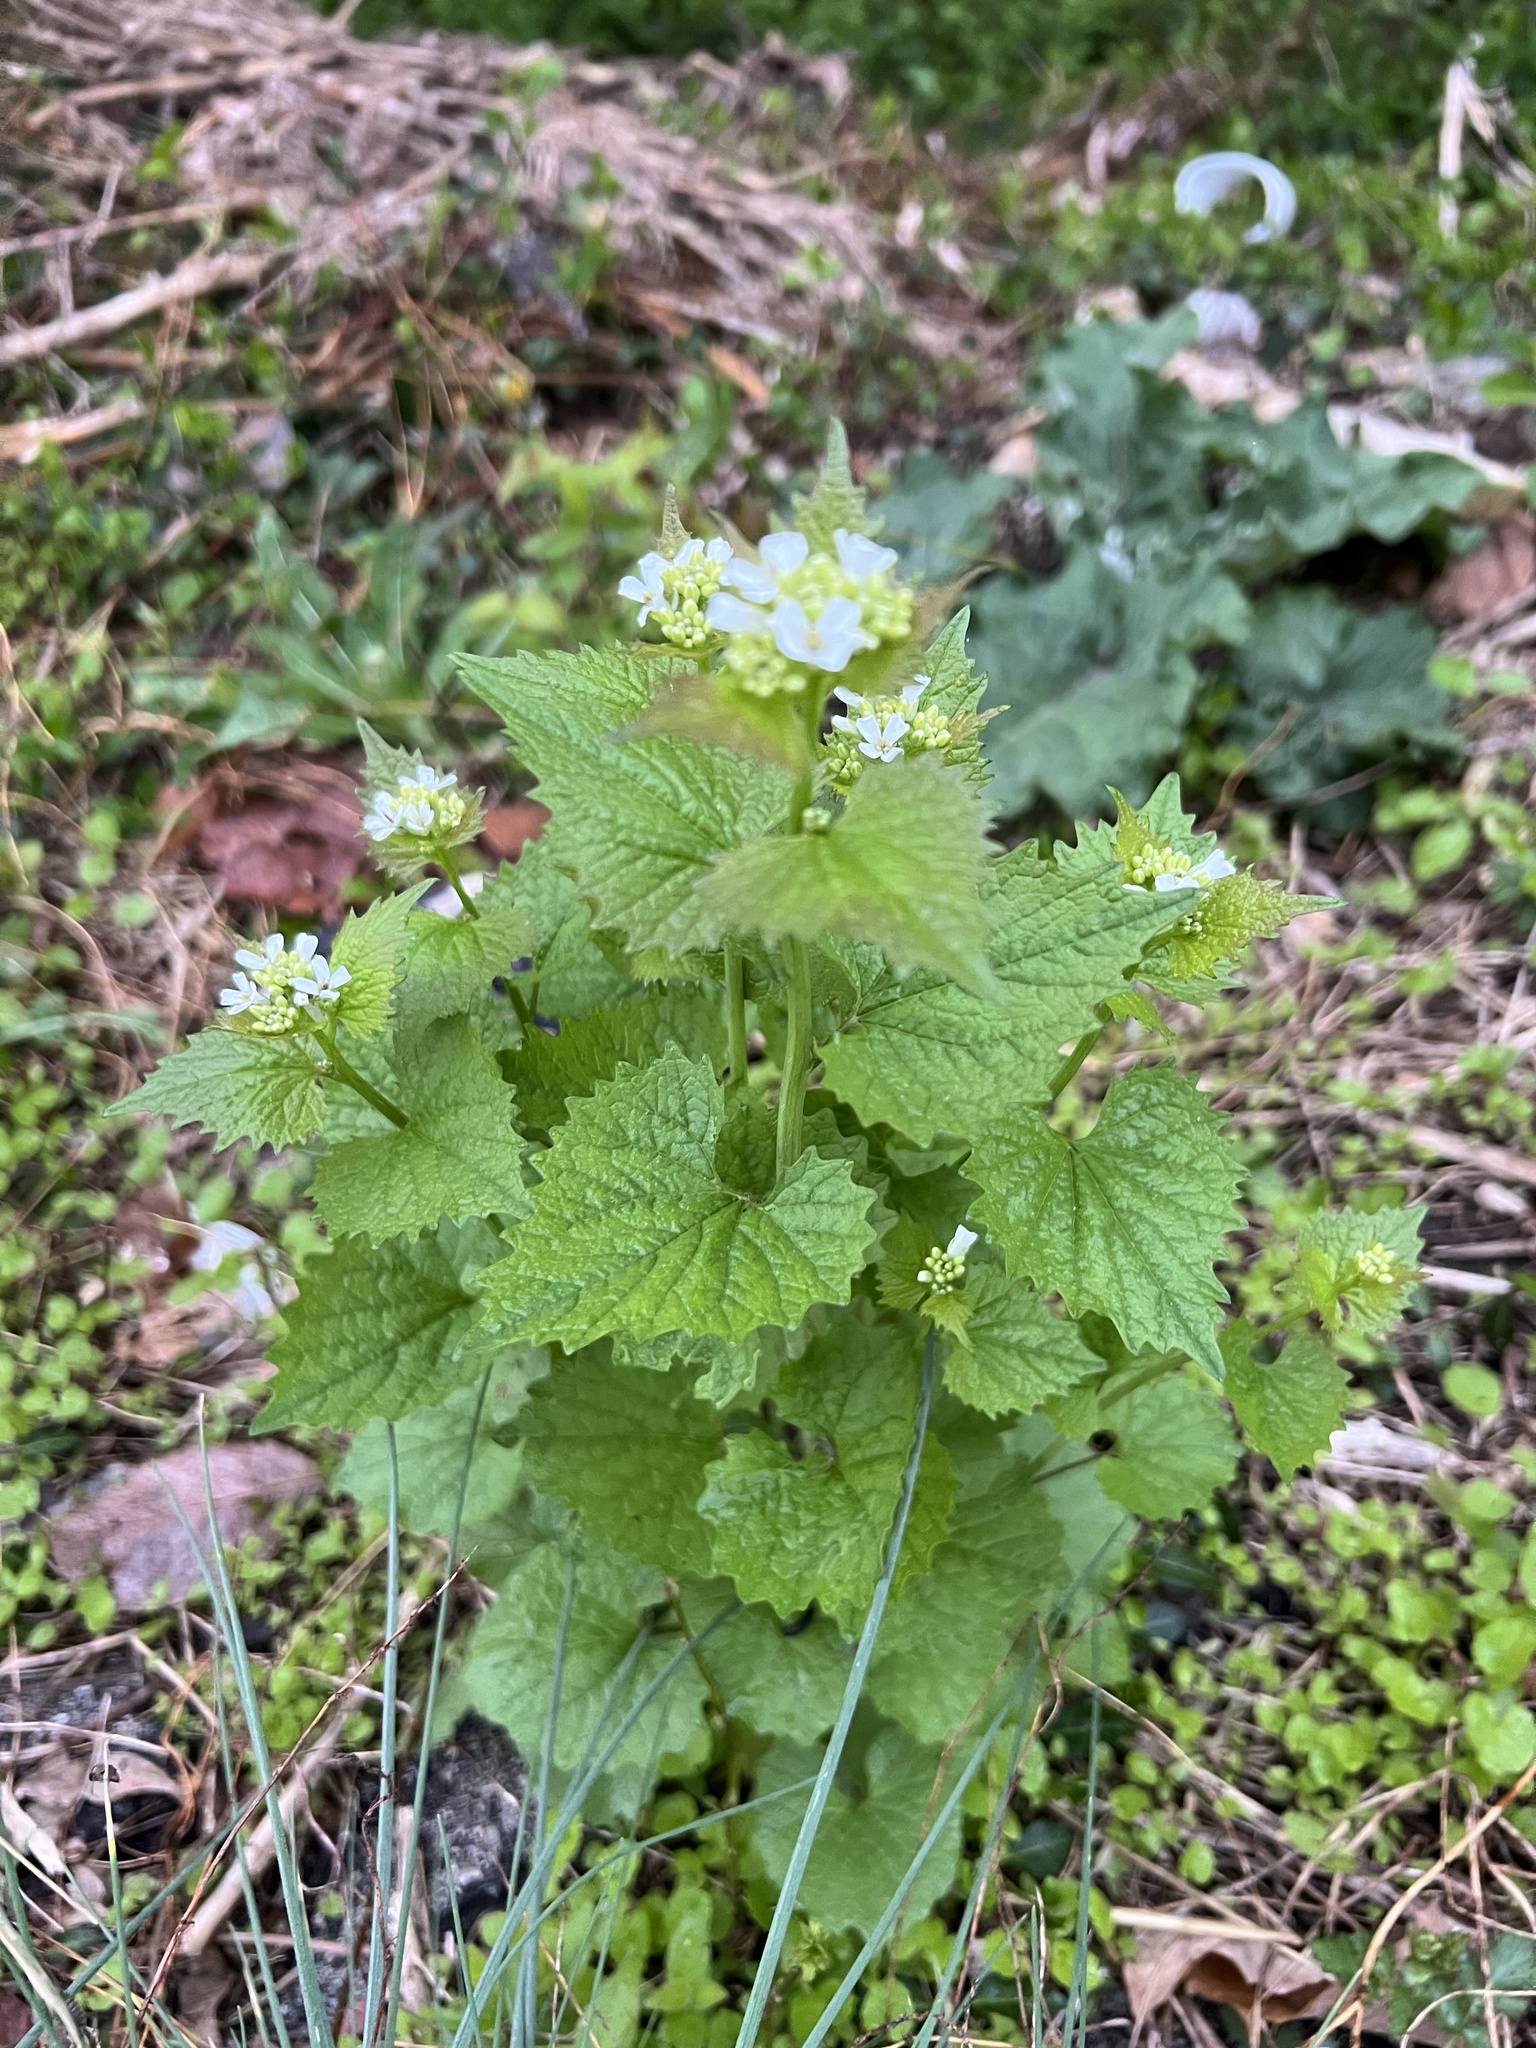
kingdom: Plantae
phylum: Tracheophyta
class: Magnoliopsida
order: Brassicales
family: Brassicaceae
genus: Alliaria
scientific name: Alliaria petiolata
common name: Garlic mustard
